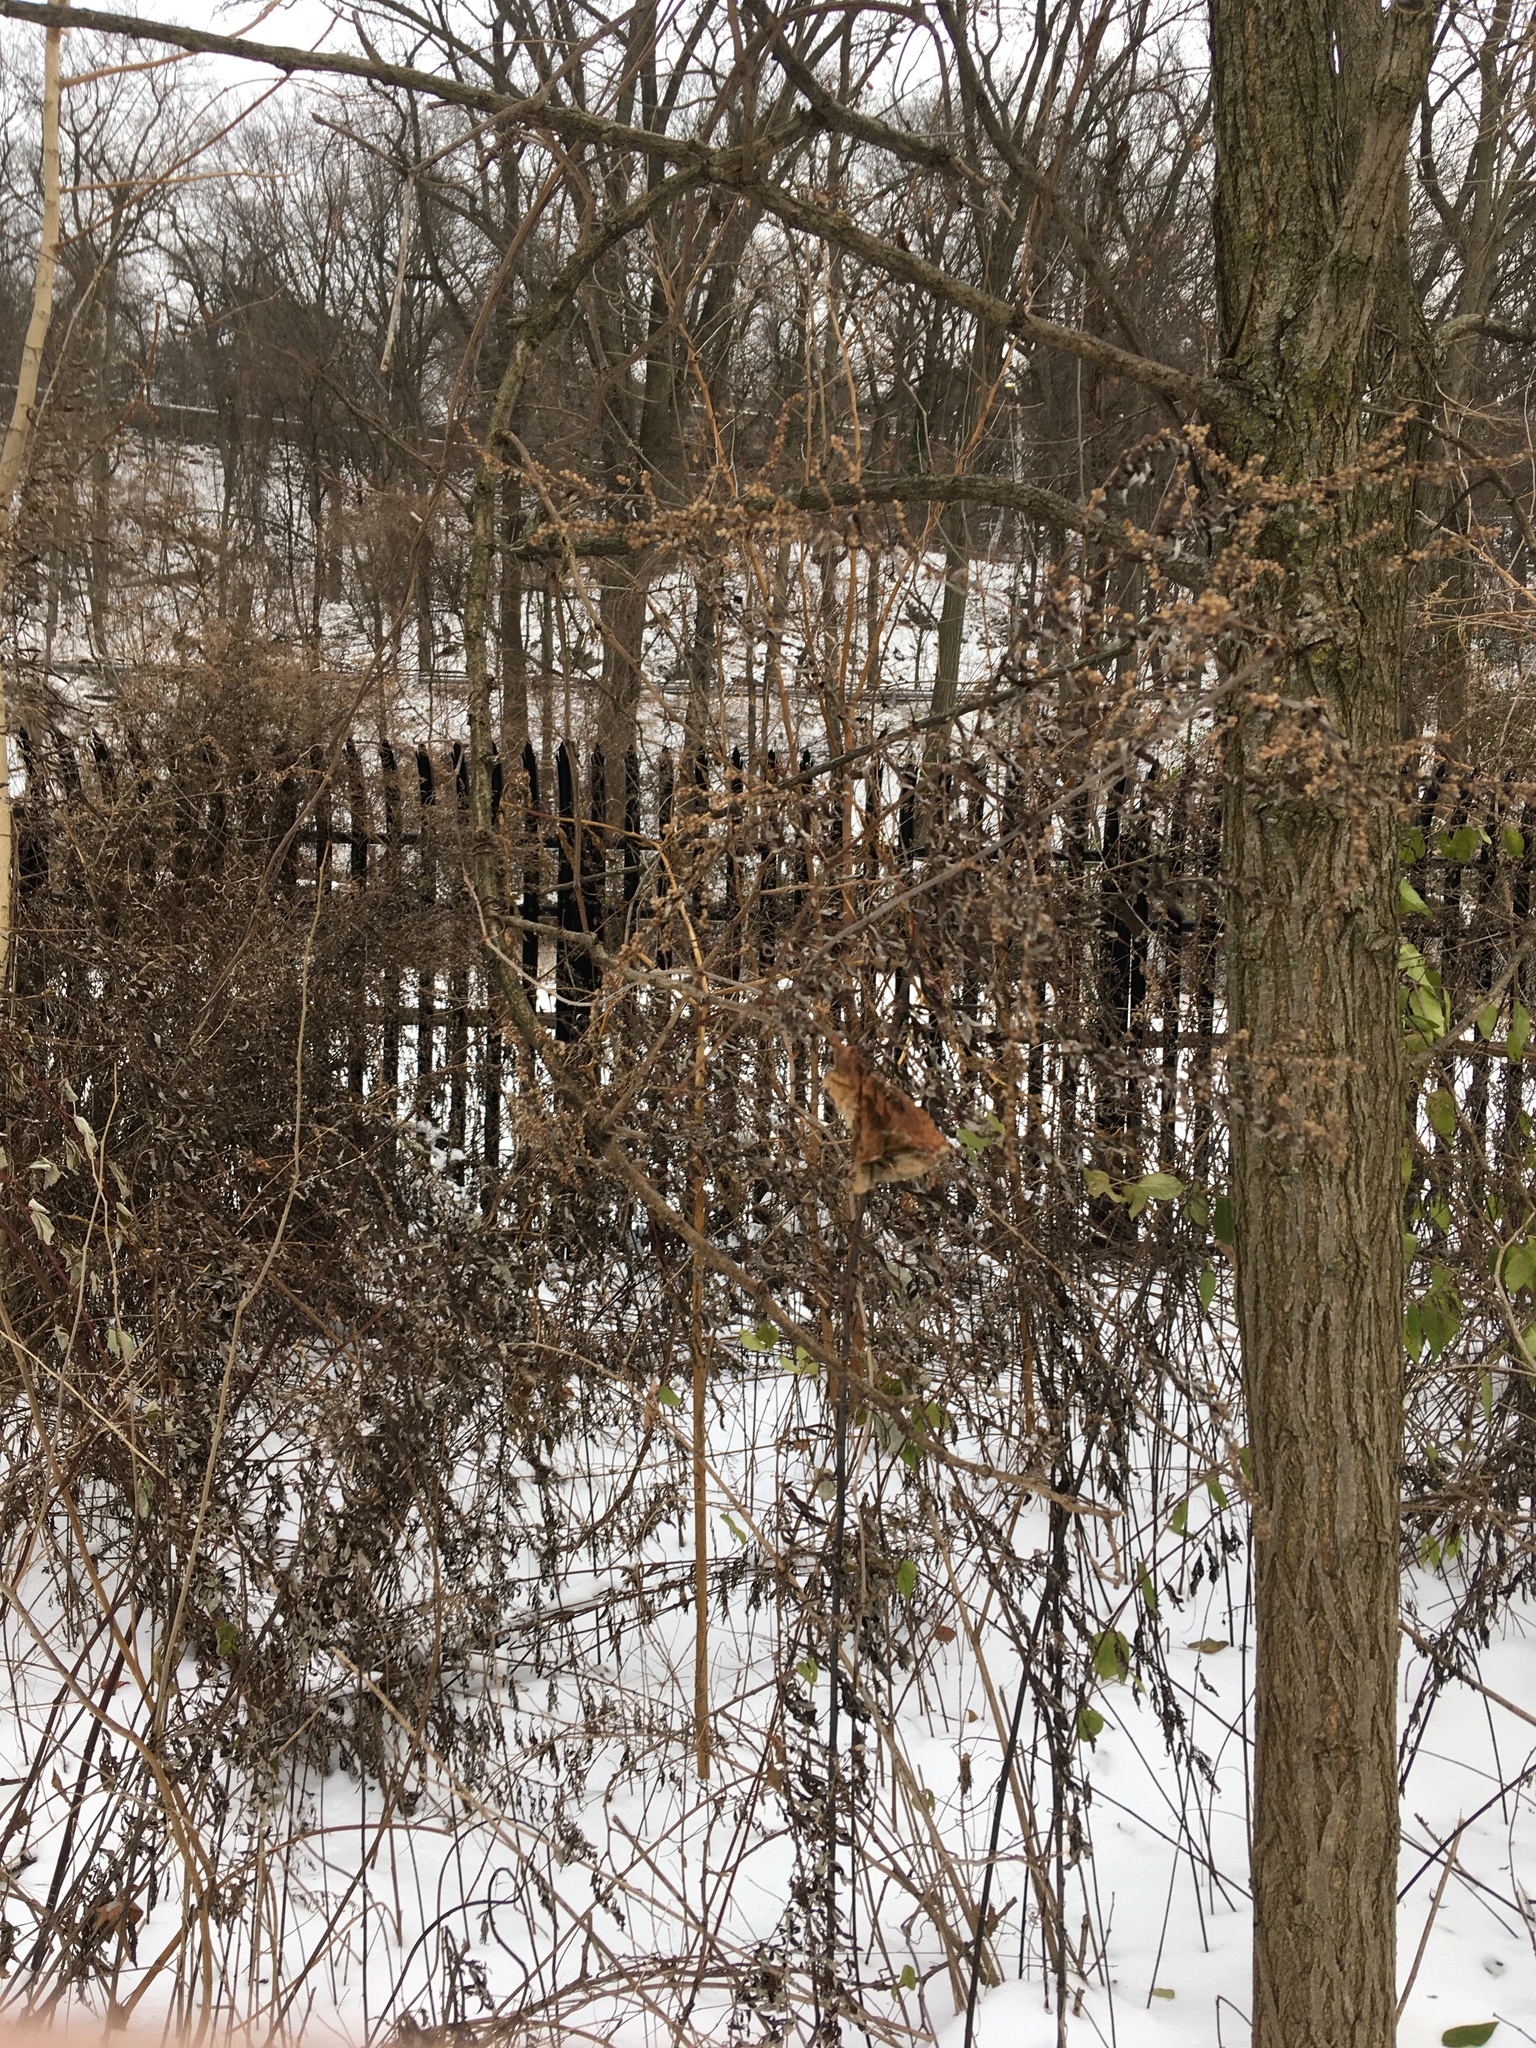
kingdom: Plantae
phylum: Tracheophyta
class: Magnoliopsida
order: Asterales
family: Asteraceae
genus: Artemisia
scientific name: Artemisia vulgaris
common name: Mugwort
